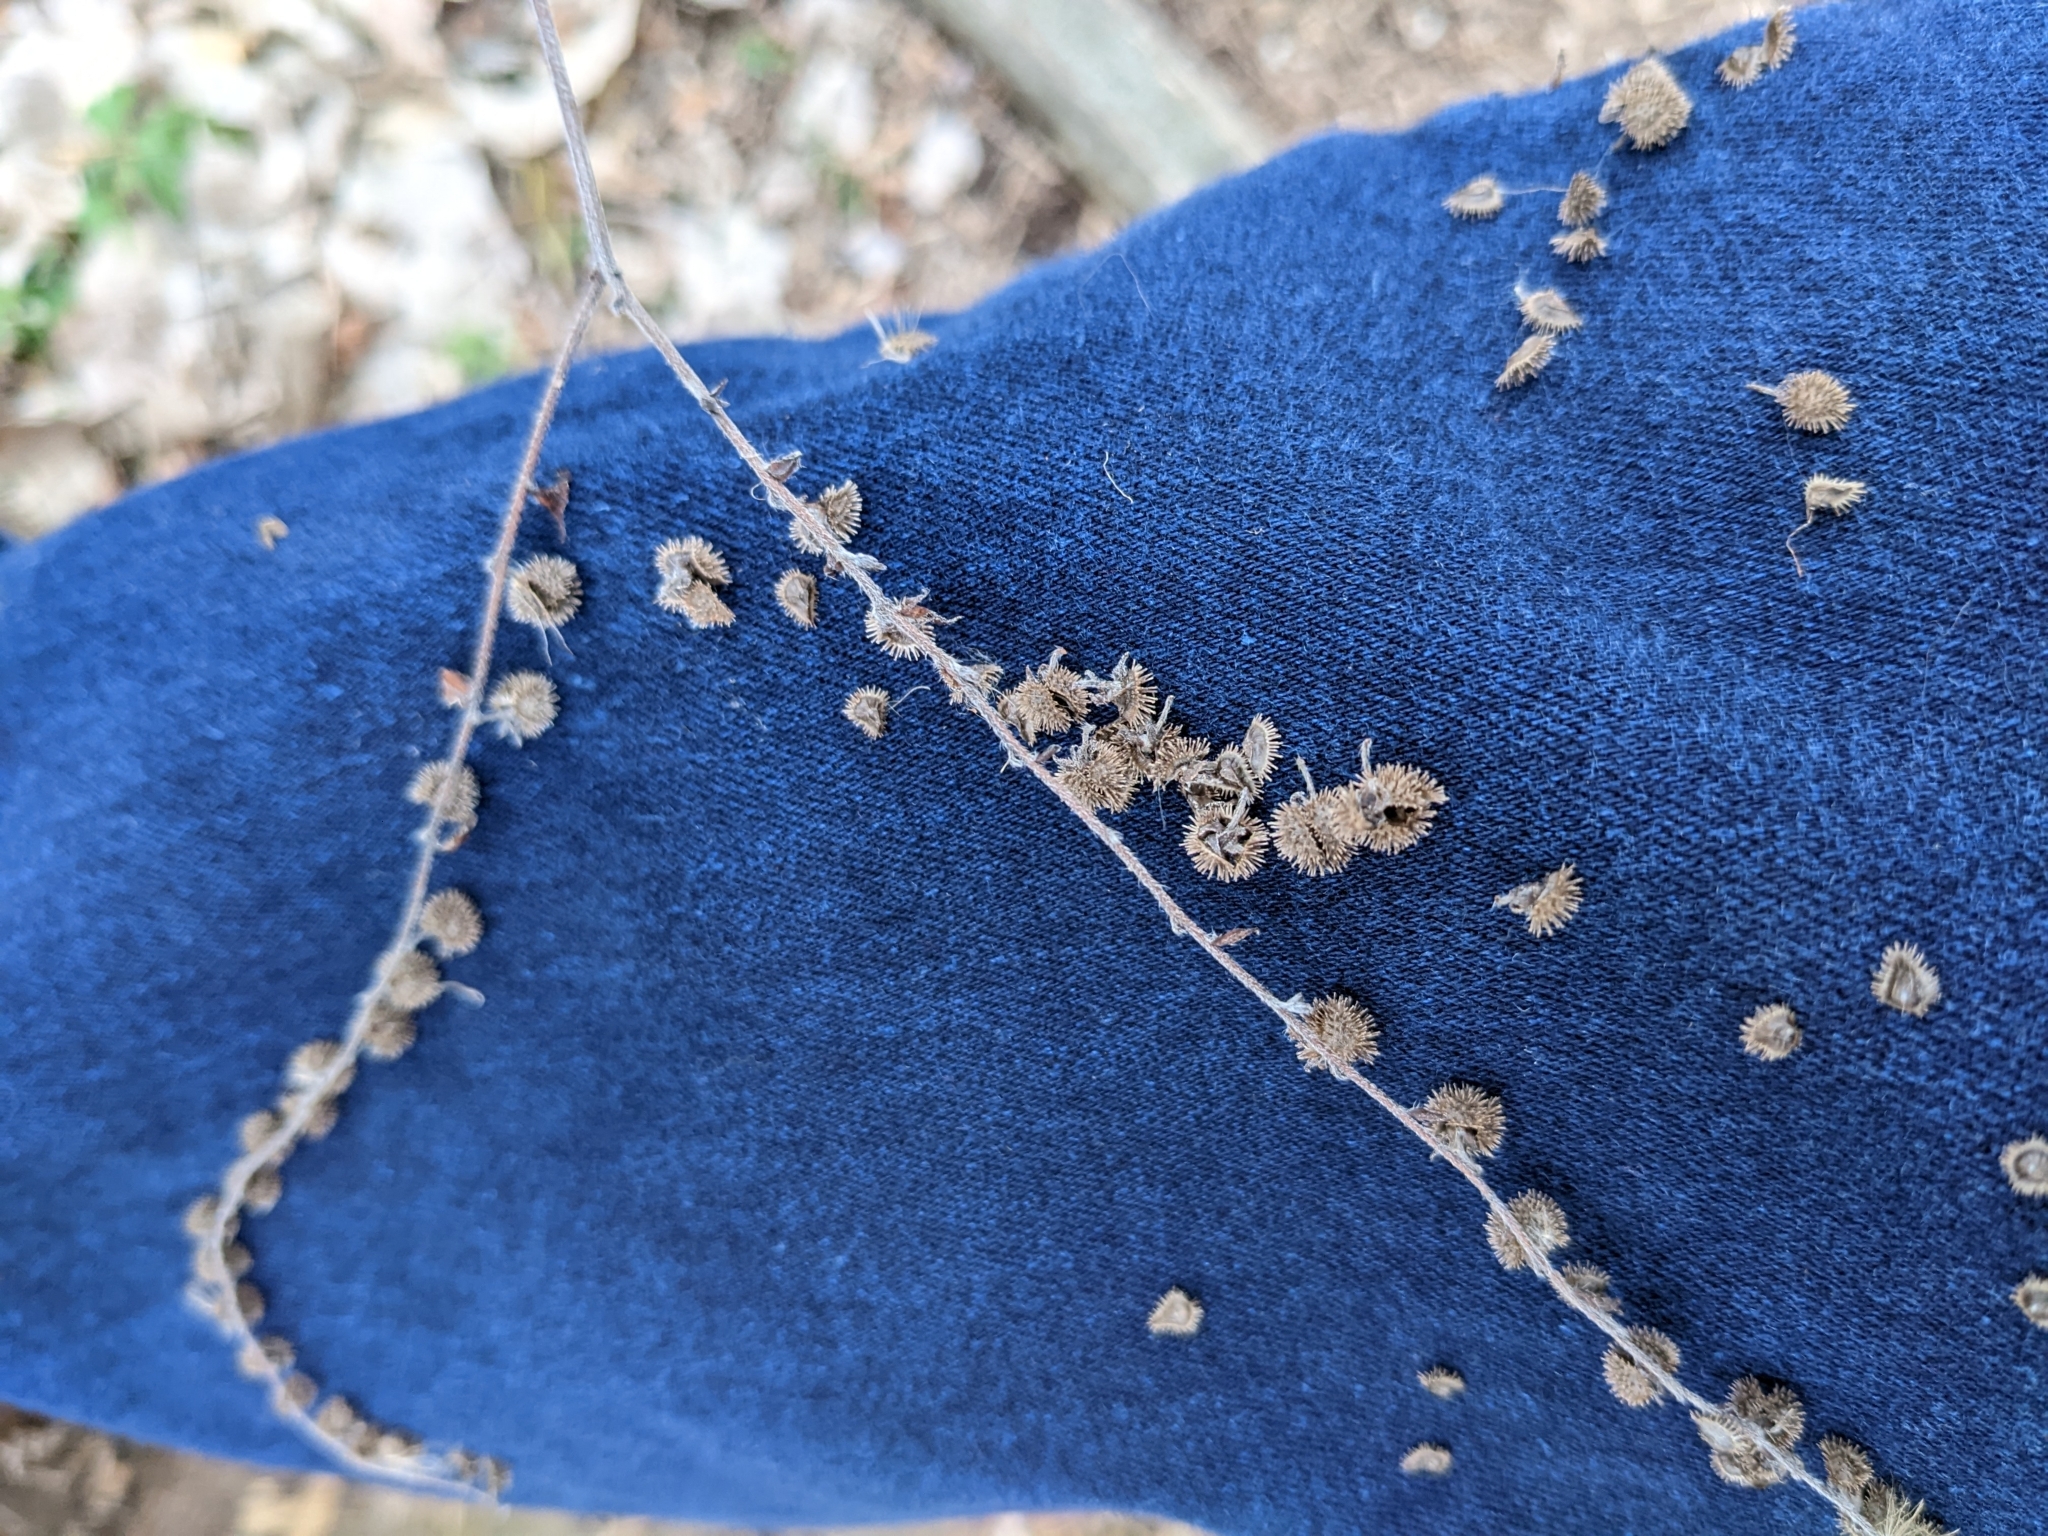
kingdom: Plantae
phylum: Tracheophyta
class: Magnoliopsida
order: Boraginales
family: Boraginaceae
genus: Hackelia
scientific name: Hackelia virginiana
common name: Beggar's-lice
